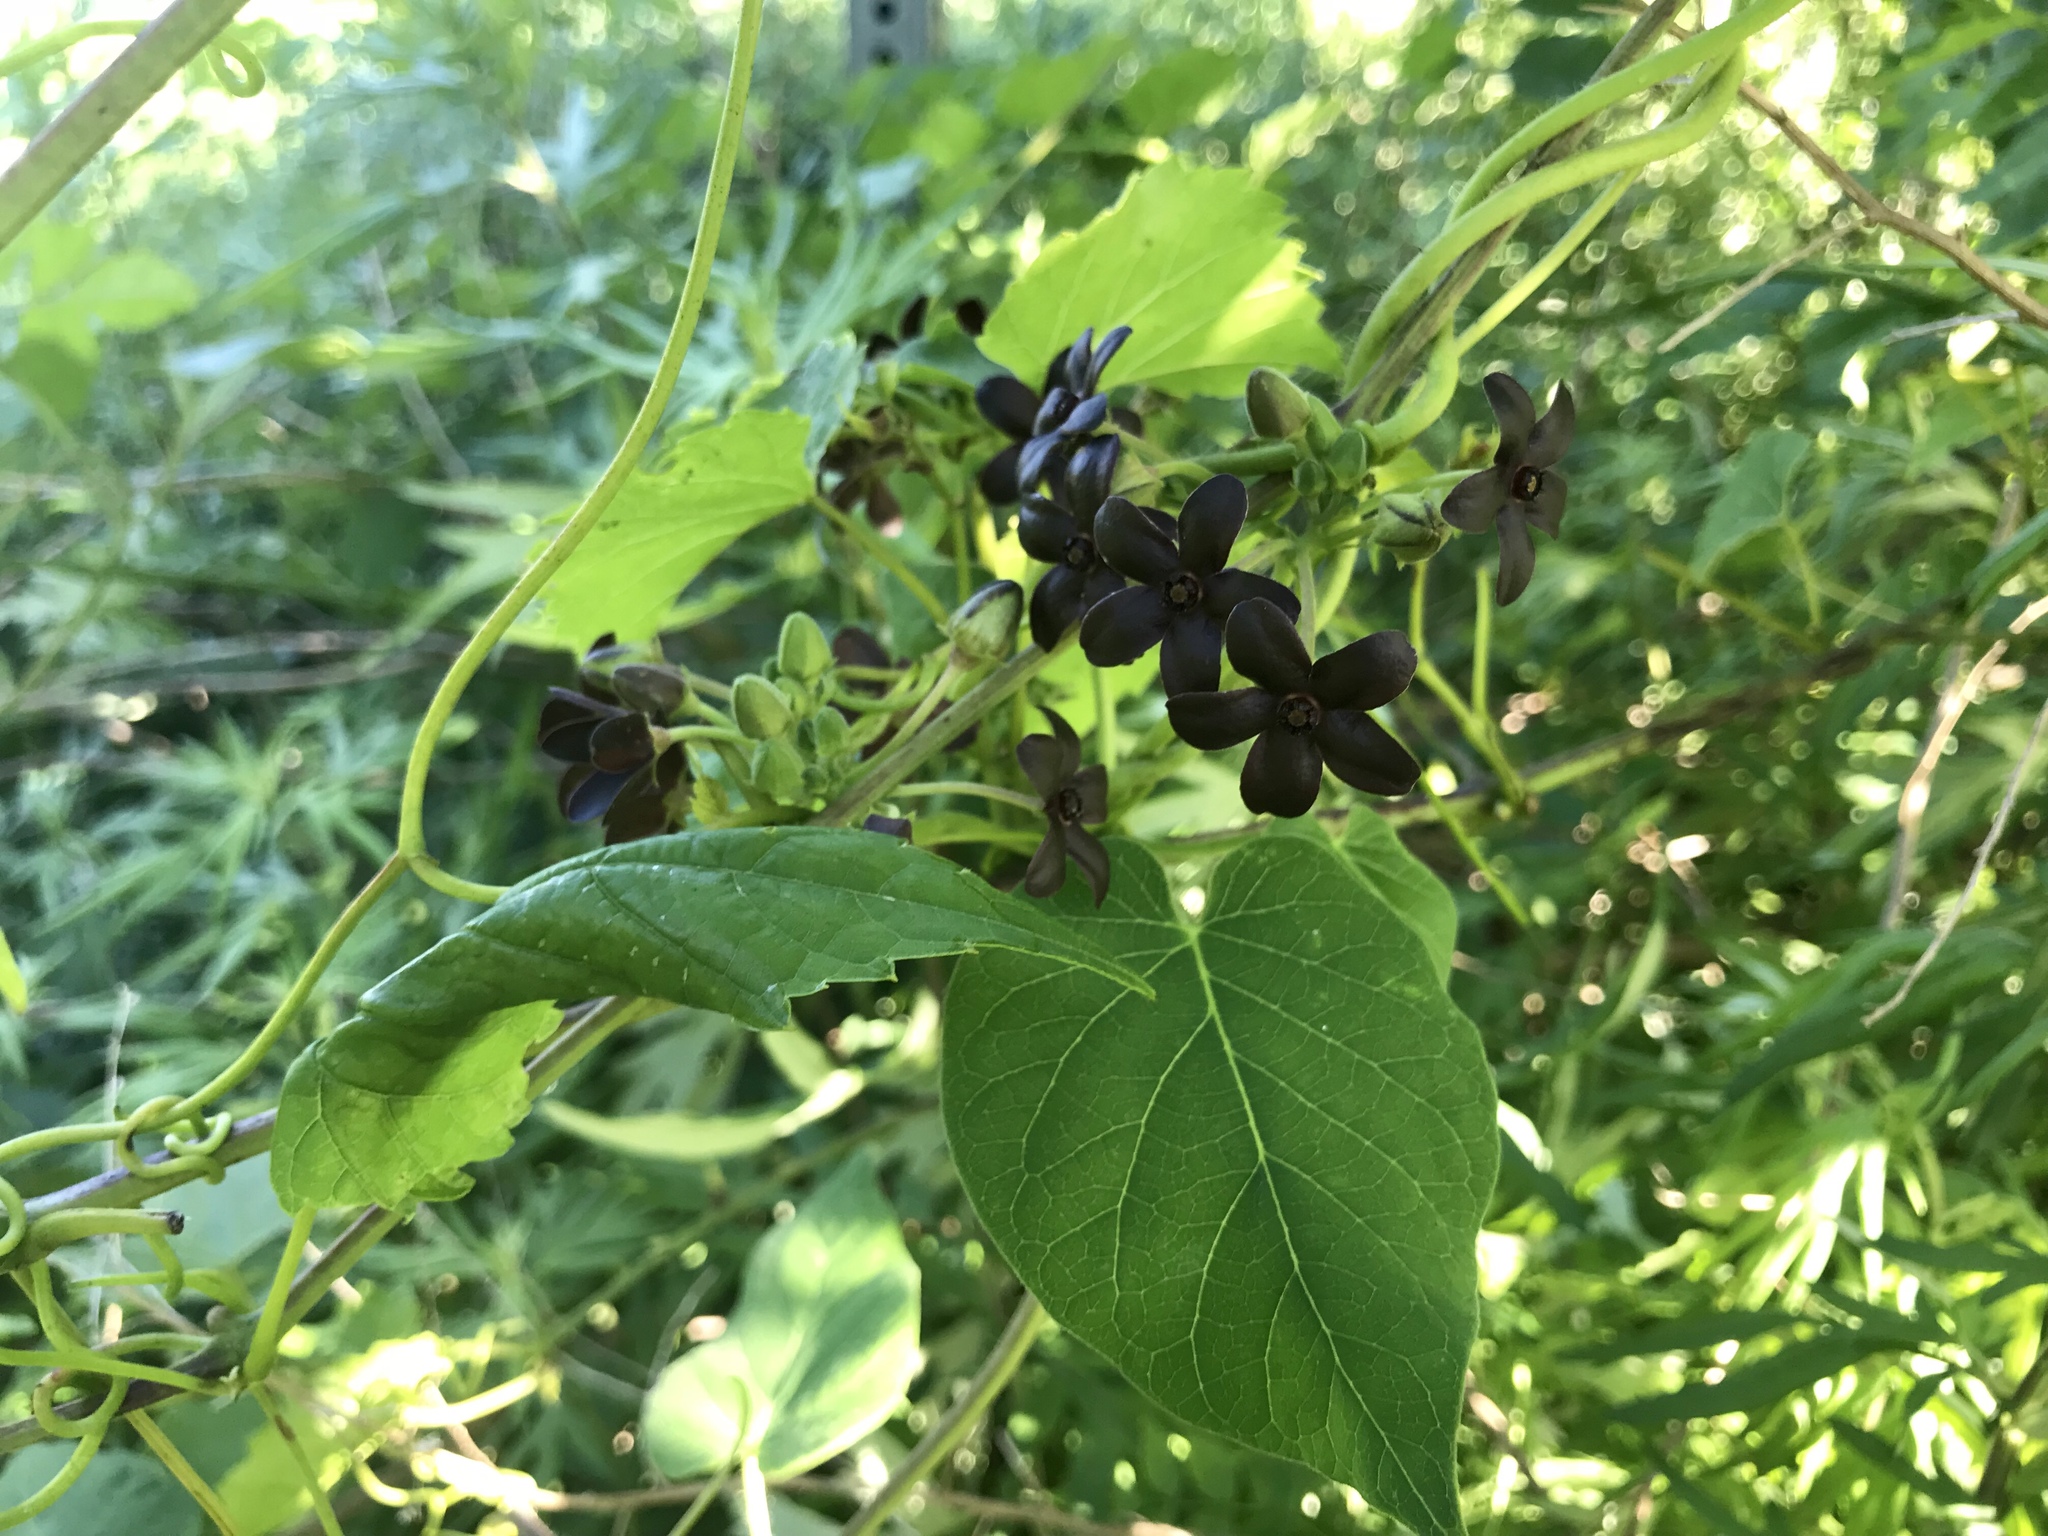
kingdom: Plantae
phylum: Tracheophyta
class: Magnoliopsida
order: Gentianales
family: Apocynaceae
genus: Matelea
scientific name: Matelea carolinensis
